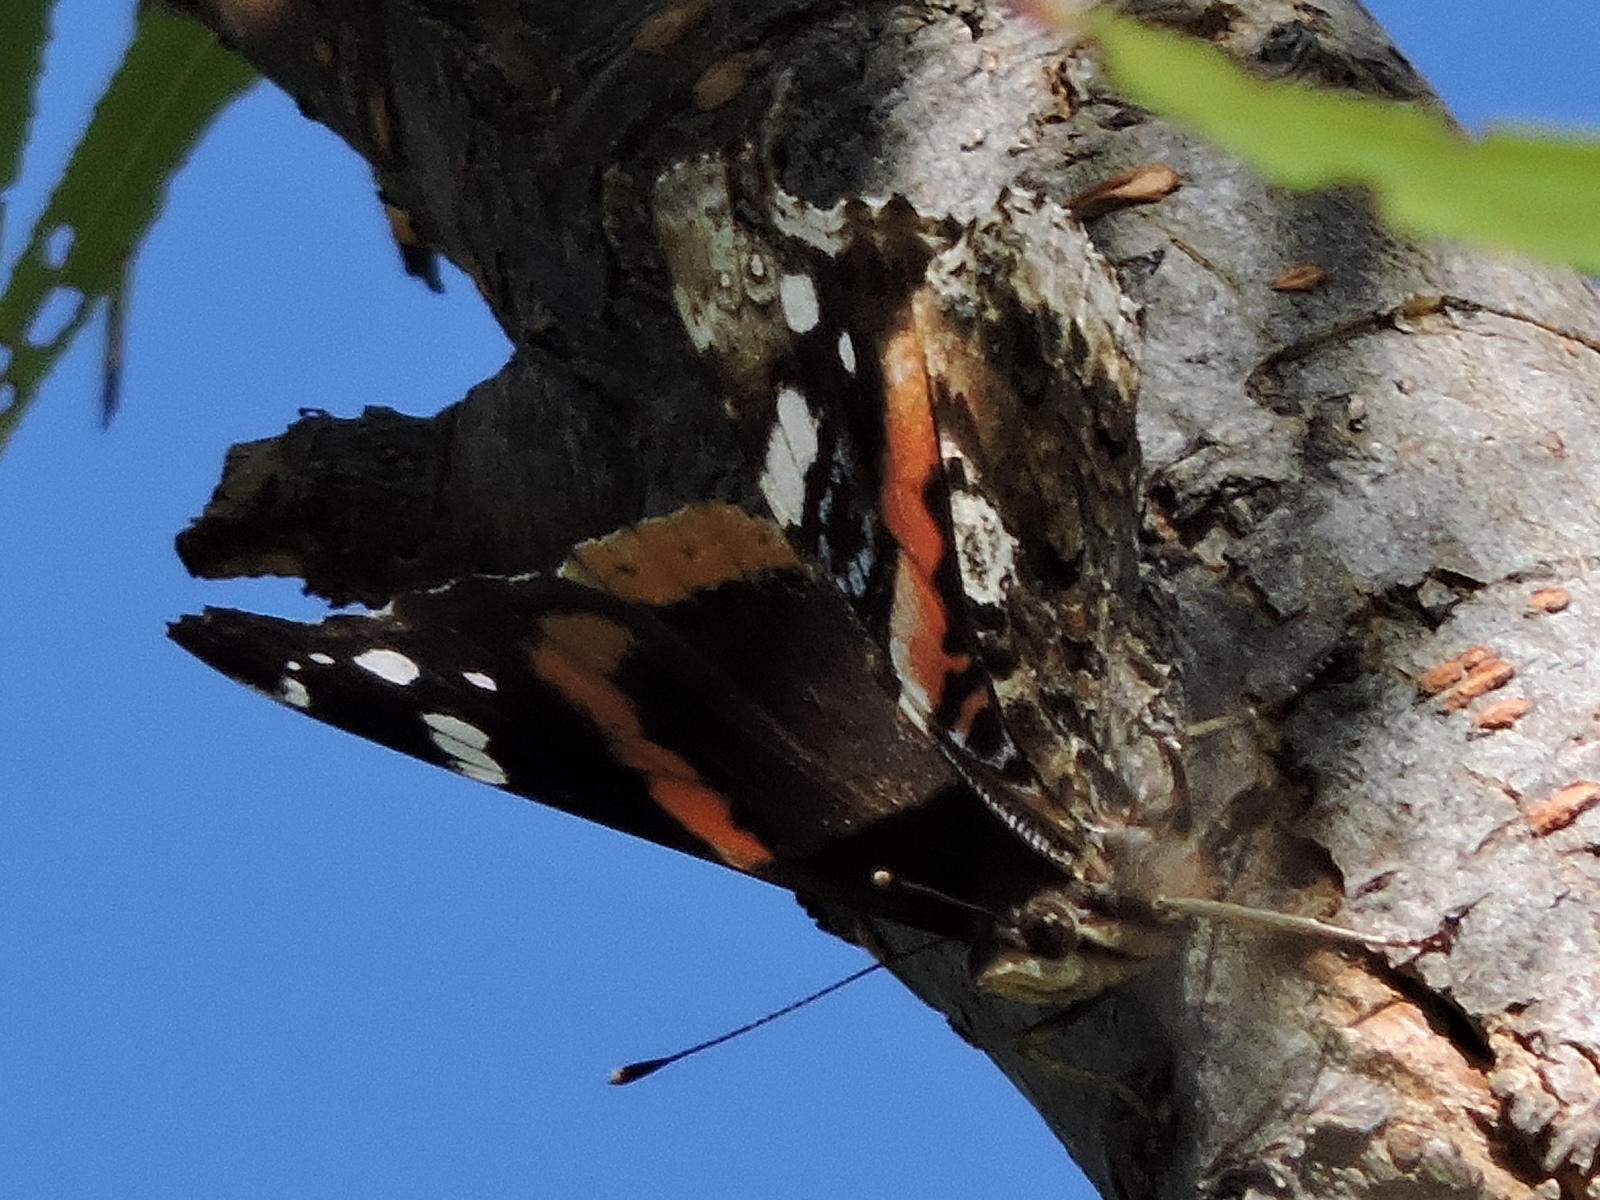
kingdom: Animalia
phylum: Arthropoda
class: Insecta
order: Lepidoptera
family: Nymphalidae
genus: Vanessa
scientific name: Vanessa atalanta
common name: Red admiral
